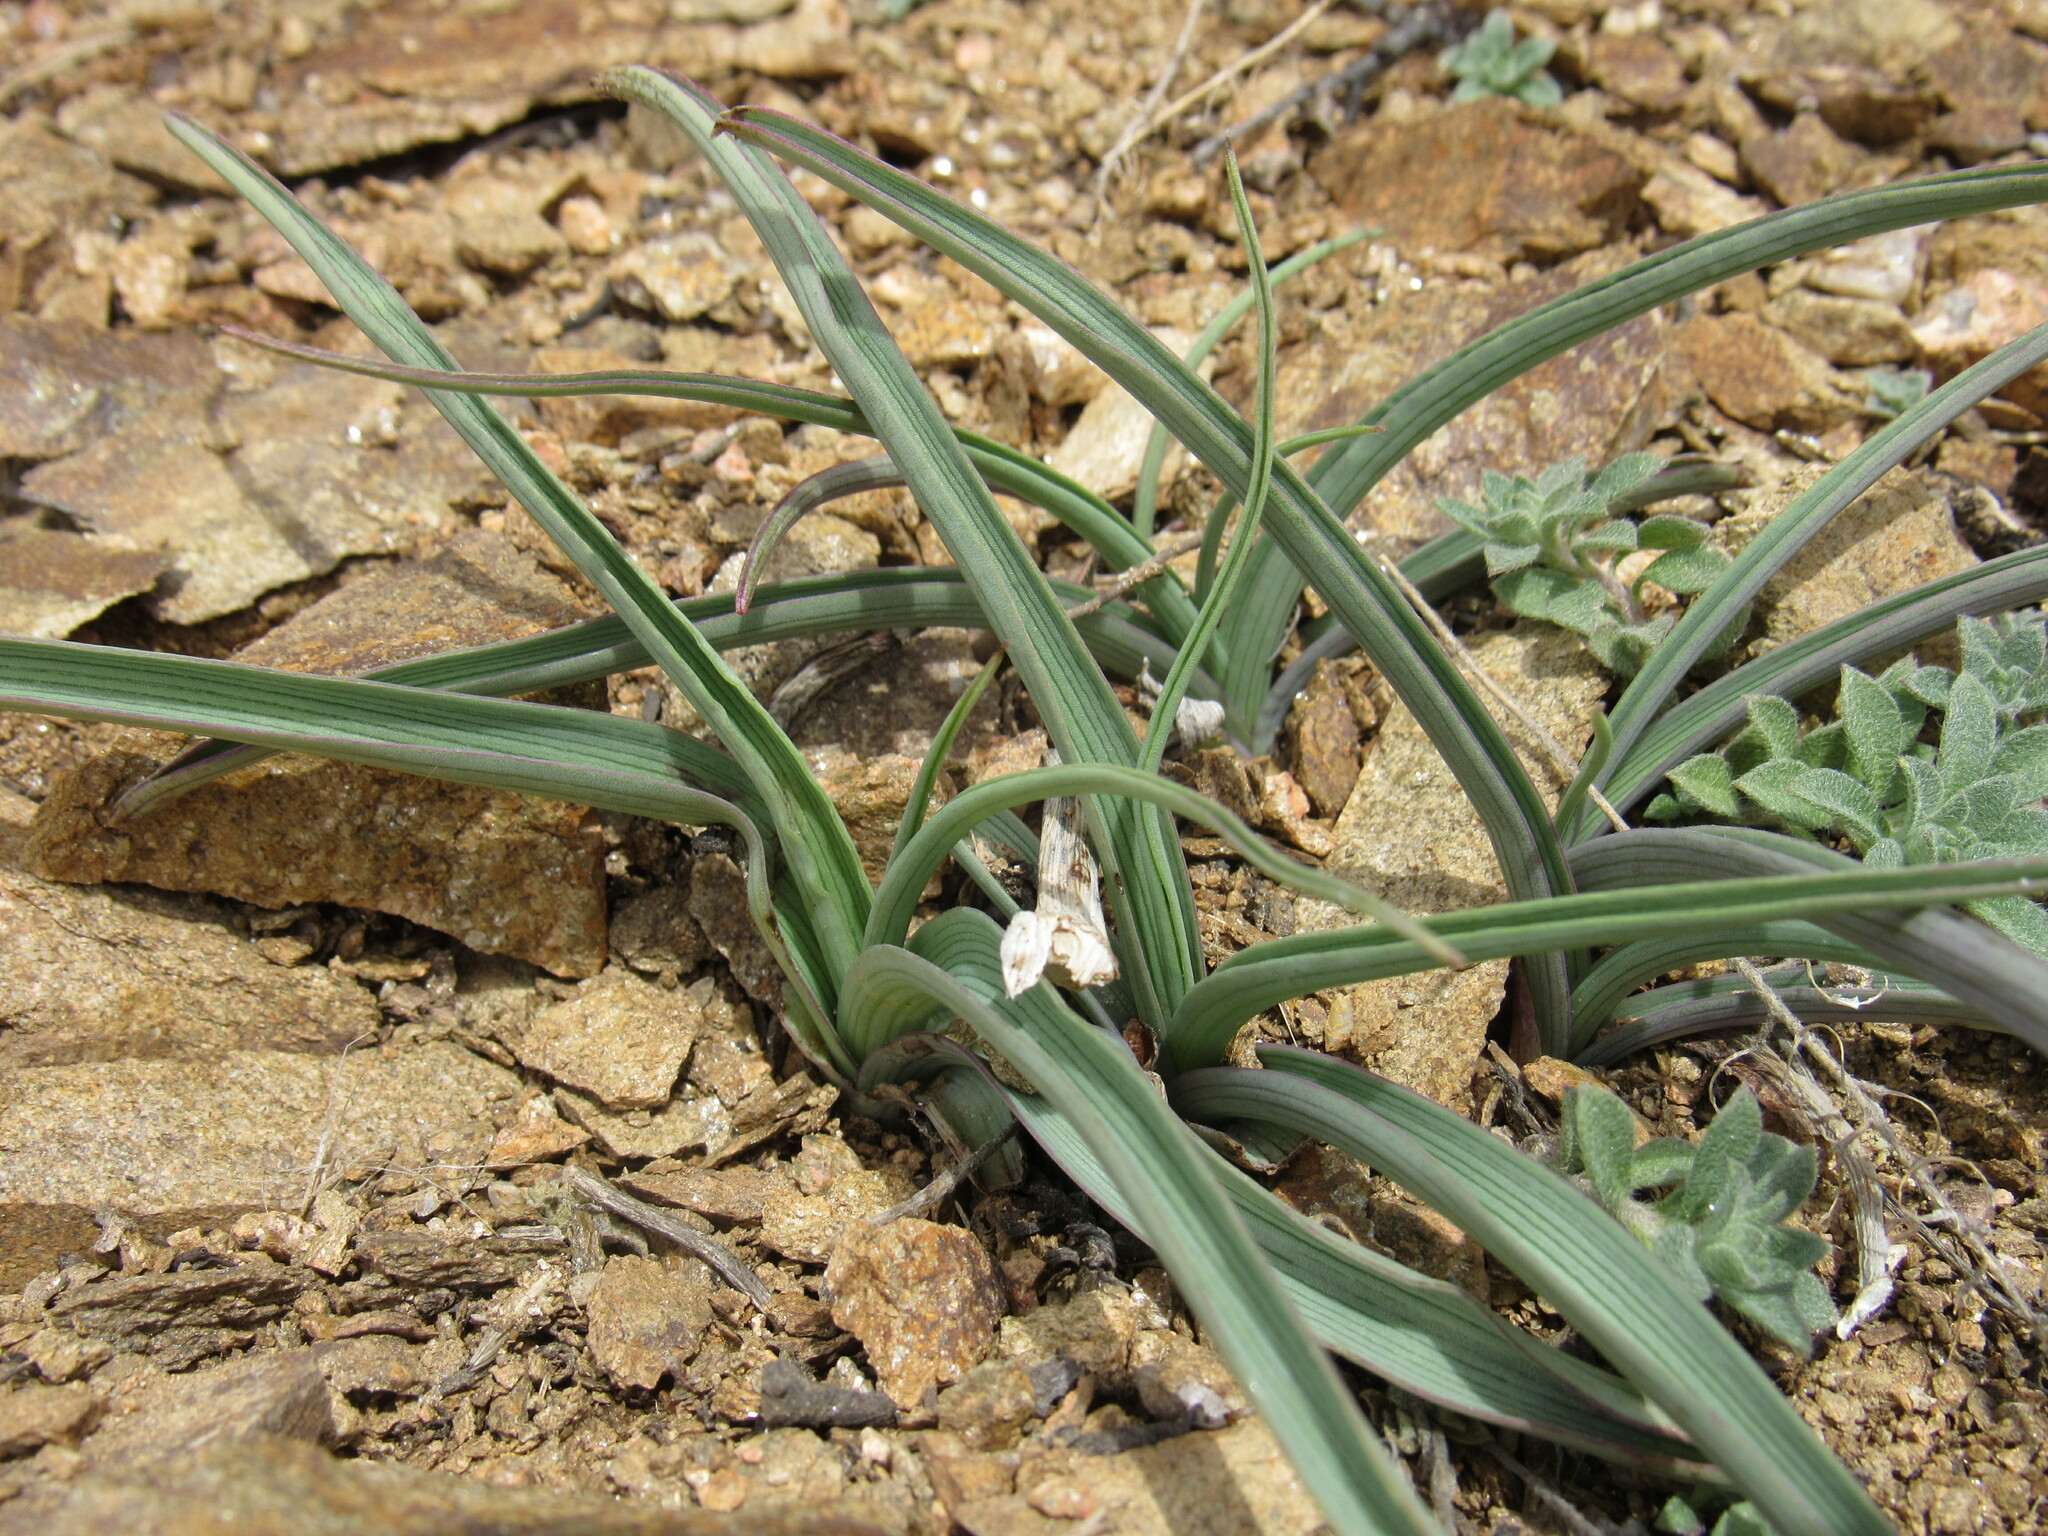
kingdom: Plantae
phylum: Tracheophyta
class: Liliopsida
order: Asparagales
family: Asparagaceae
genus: Leucocrinum
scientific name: Leucocrinum montanum
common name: Mountain-lily
